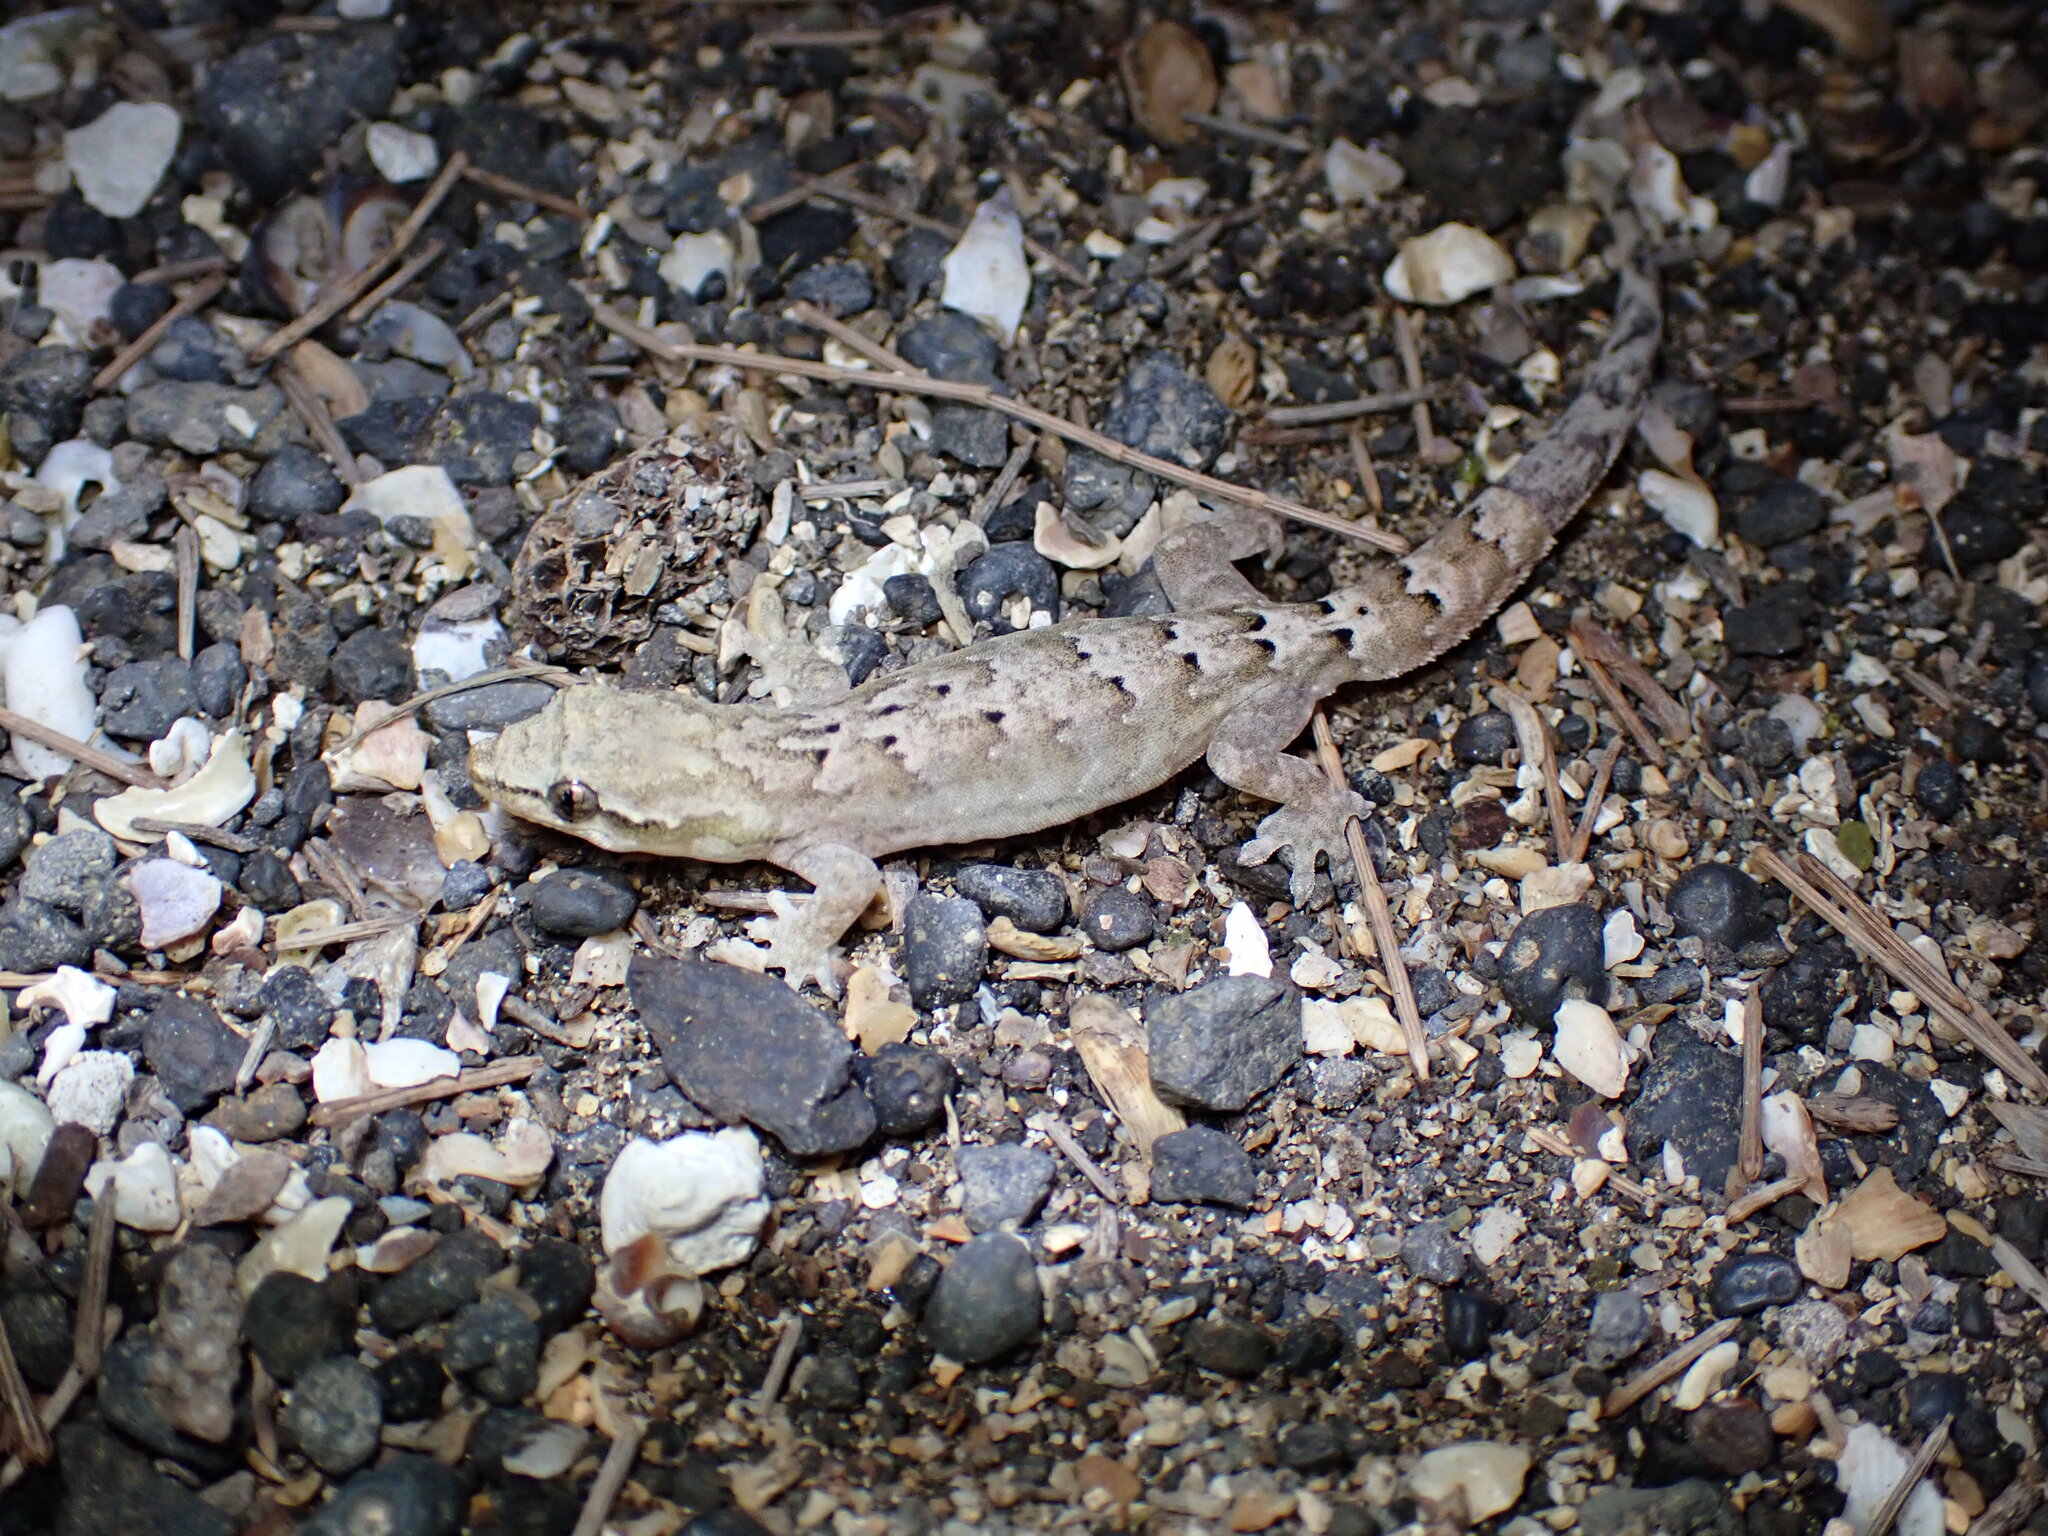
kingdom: Animalia
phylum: Chordata
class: Squamata
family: Gekkonidae
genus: Lepidodactylus
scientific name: Lepidodactylus lugubris
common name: Mourning gecko
